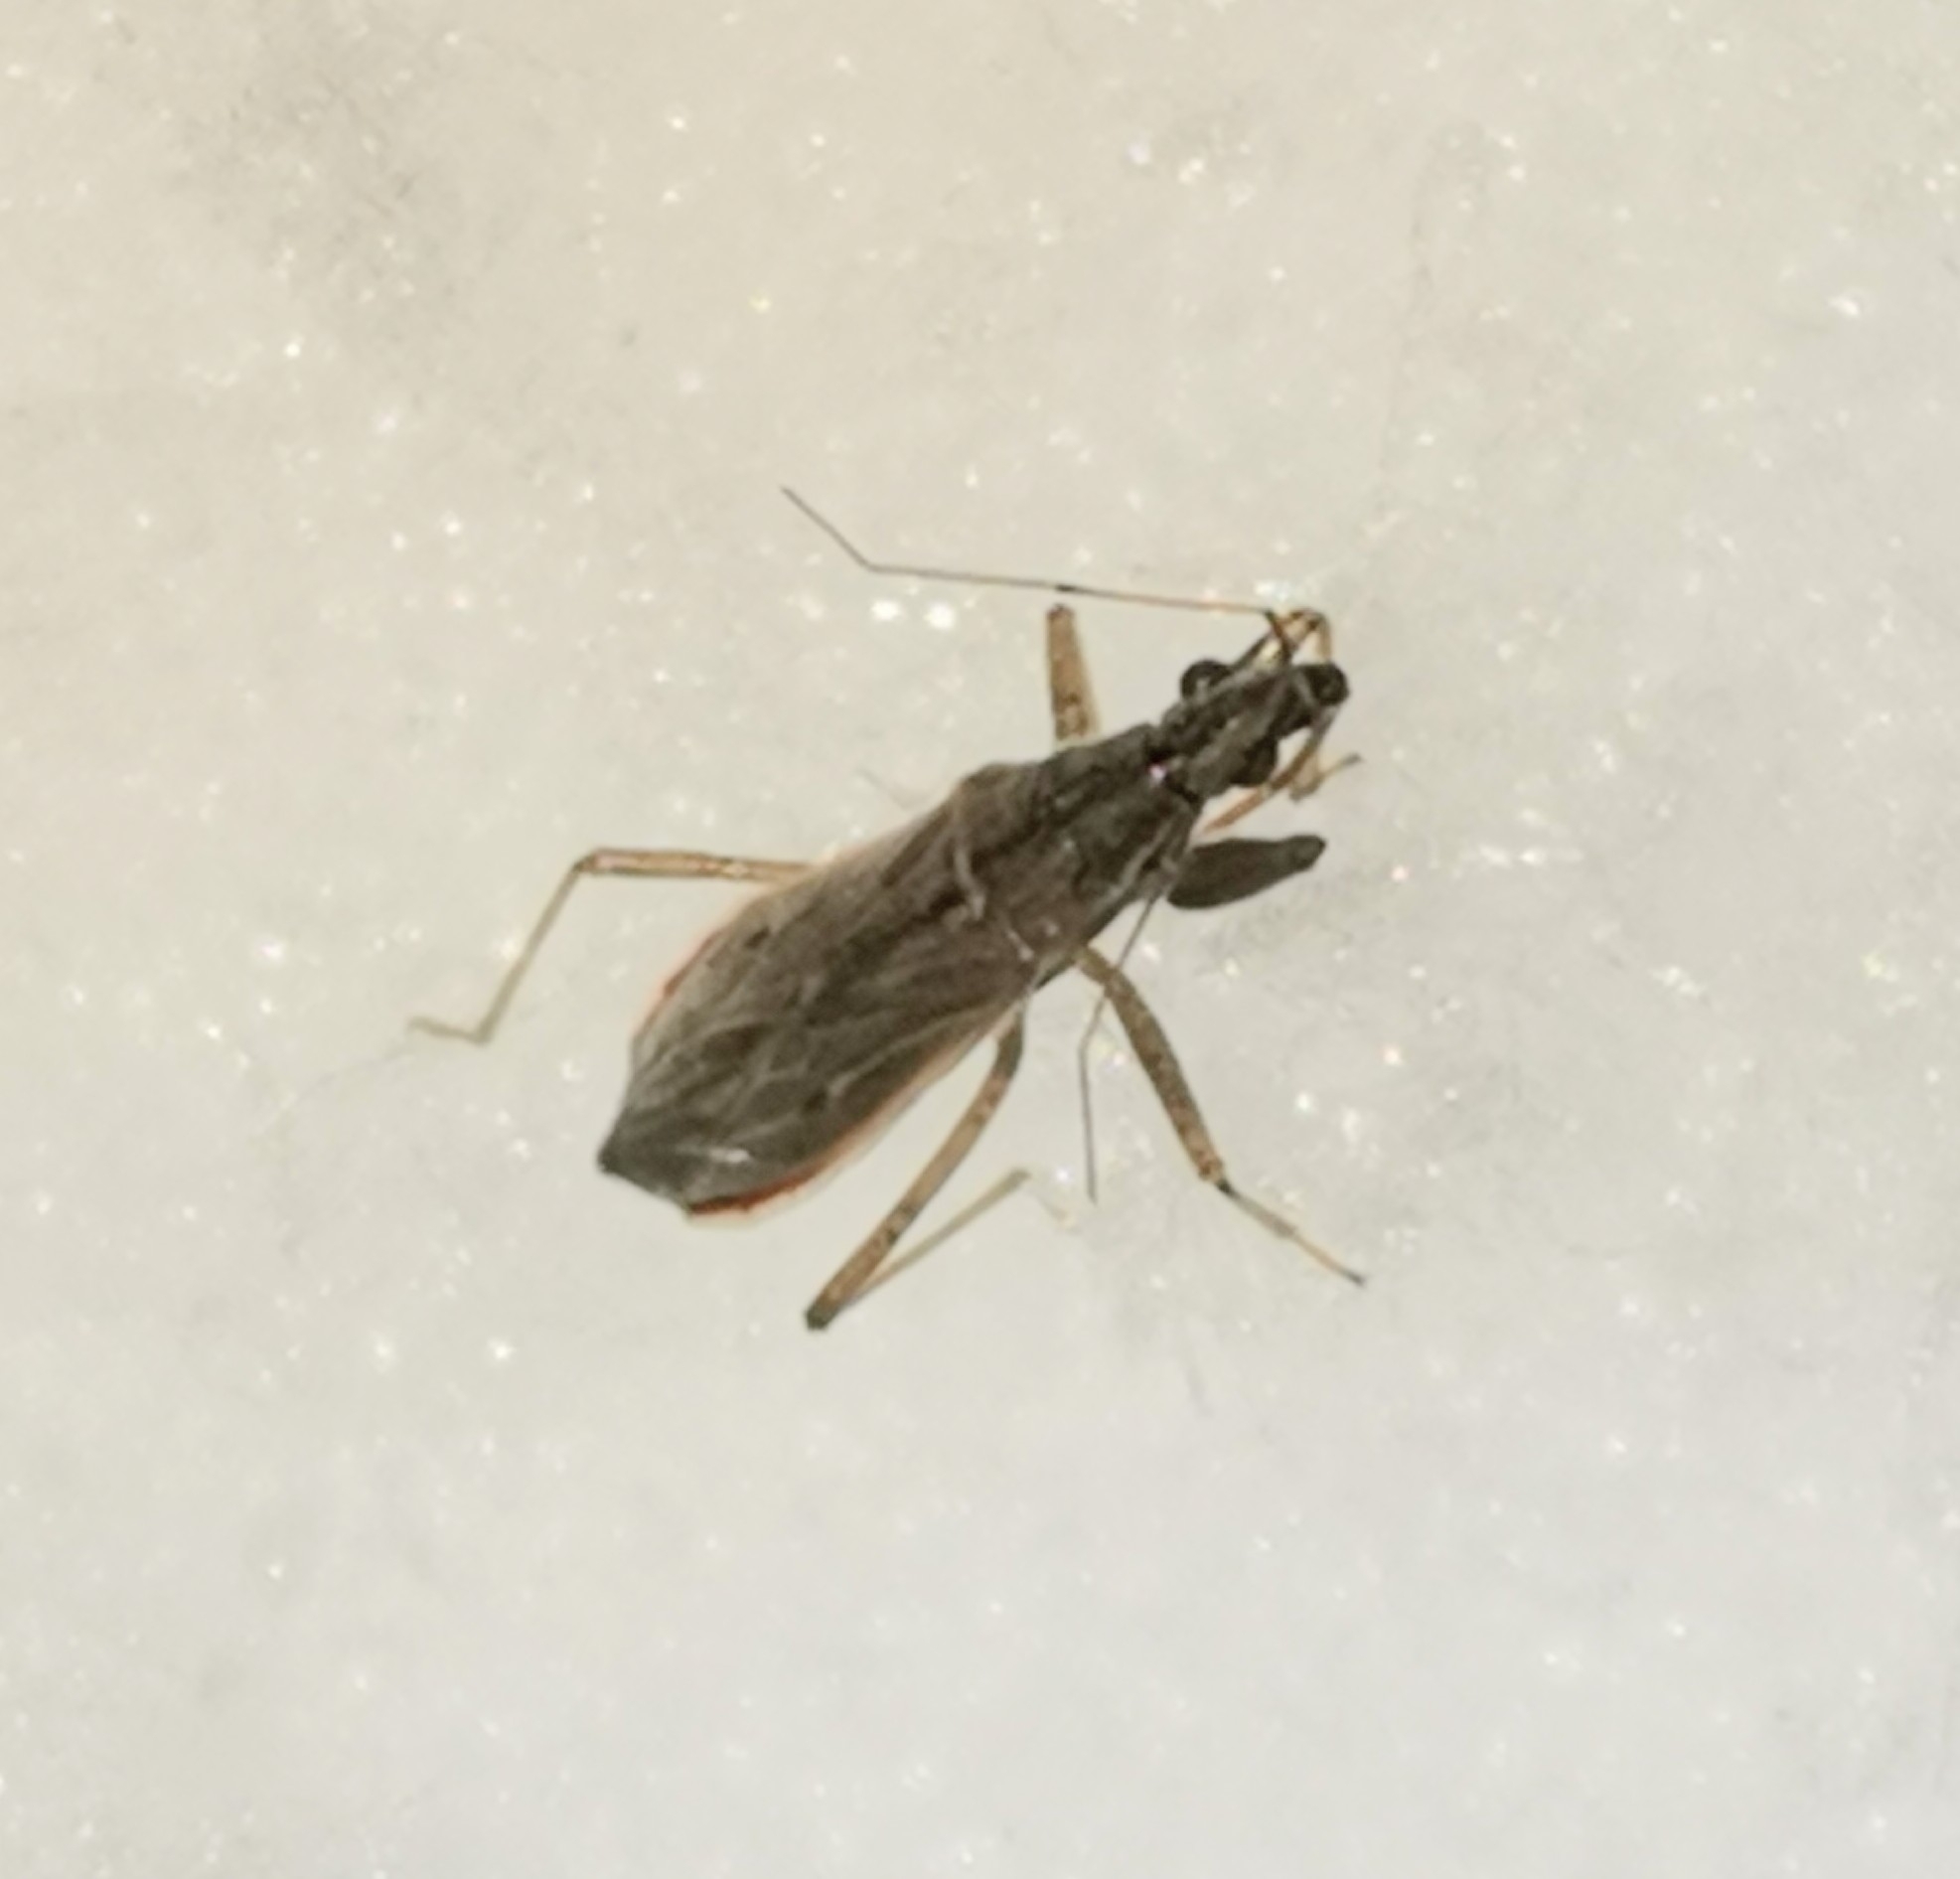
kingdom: Animalia
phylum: Arthropoda
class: Insecta
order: Hemiptera
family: Nabidae
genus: Nabis
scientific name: Nabis brevis
